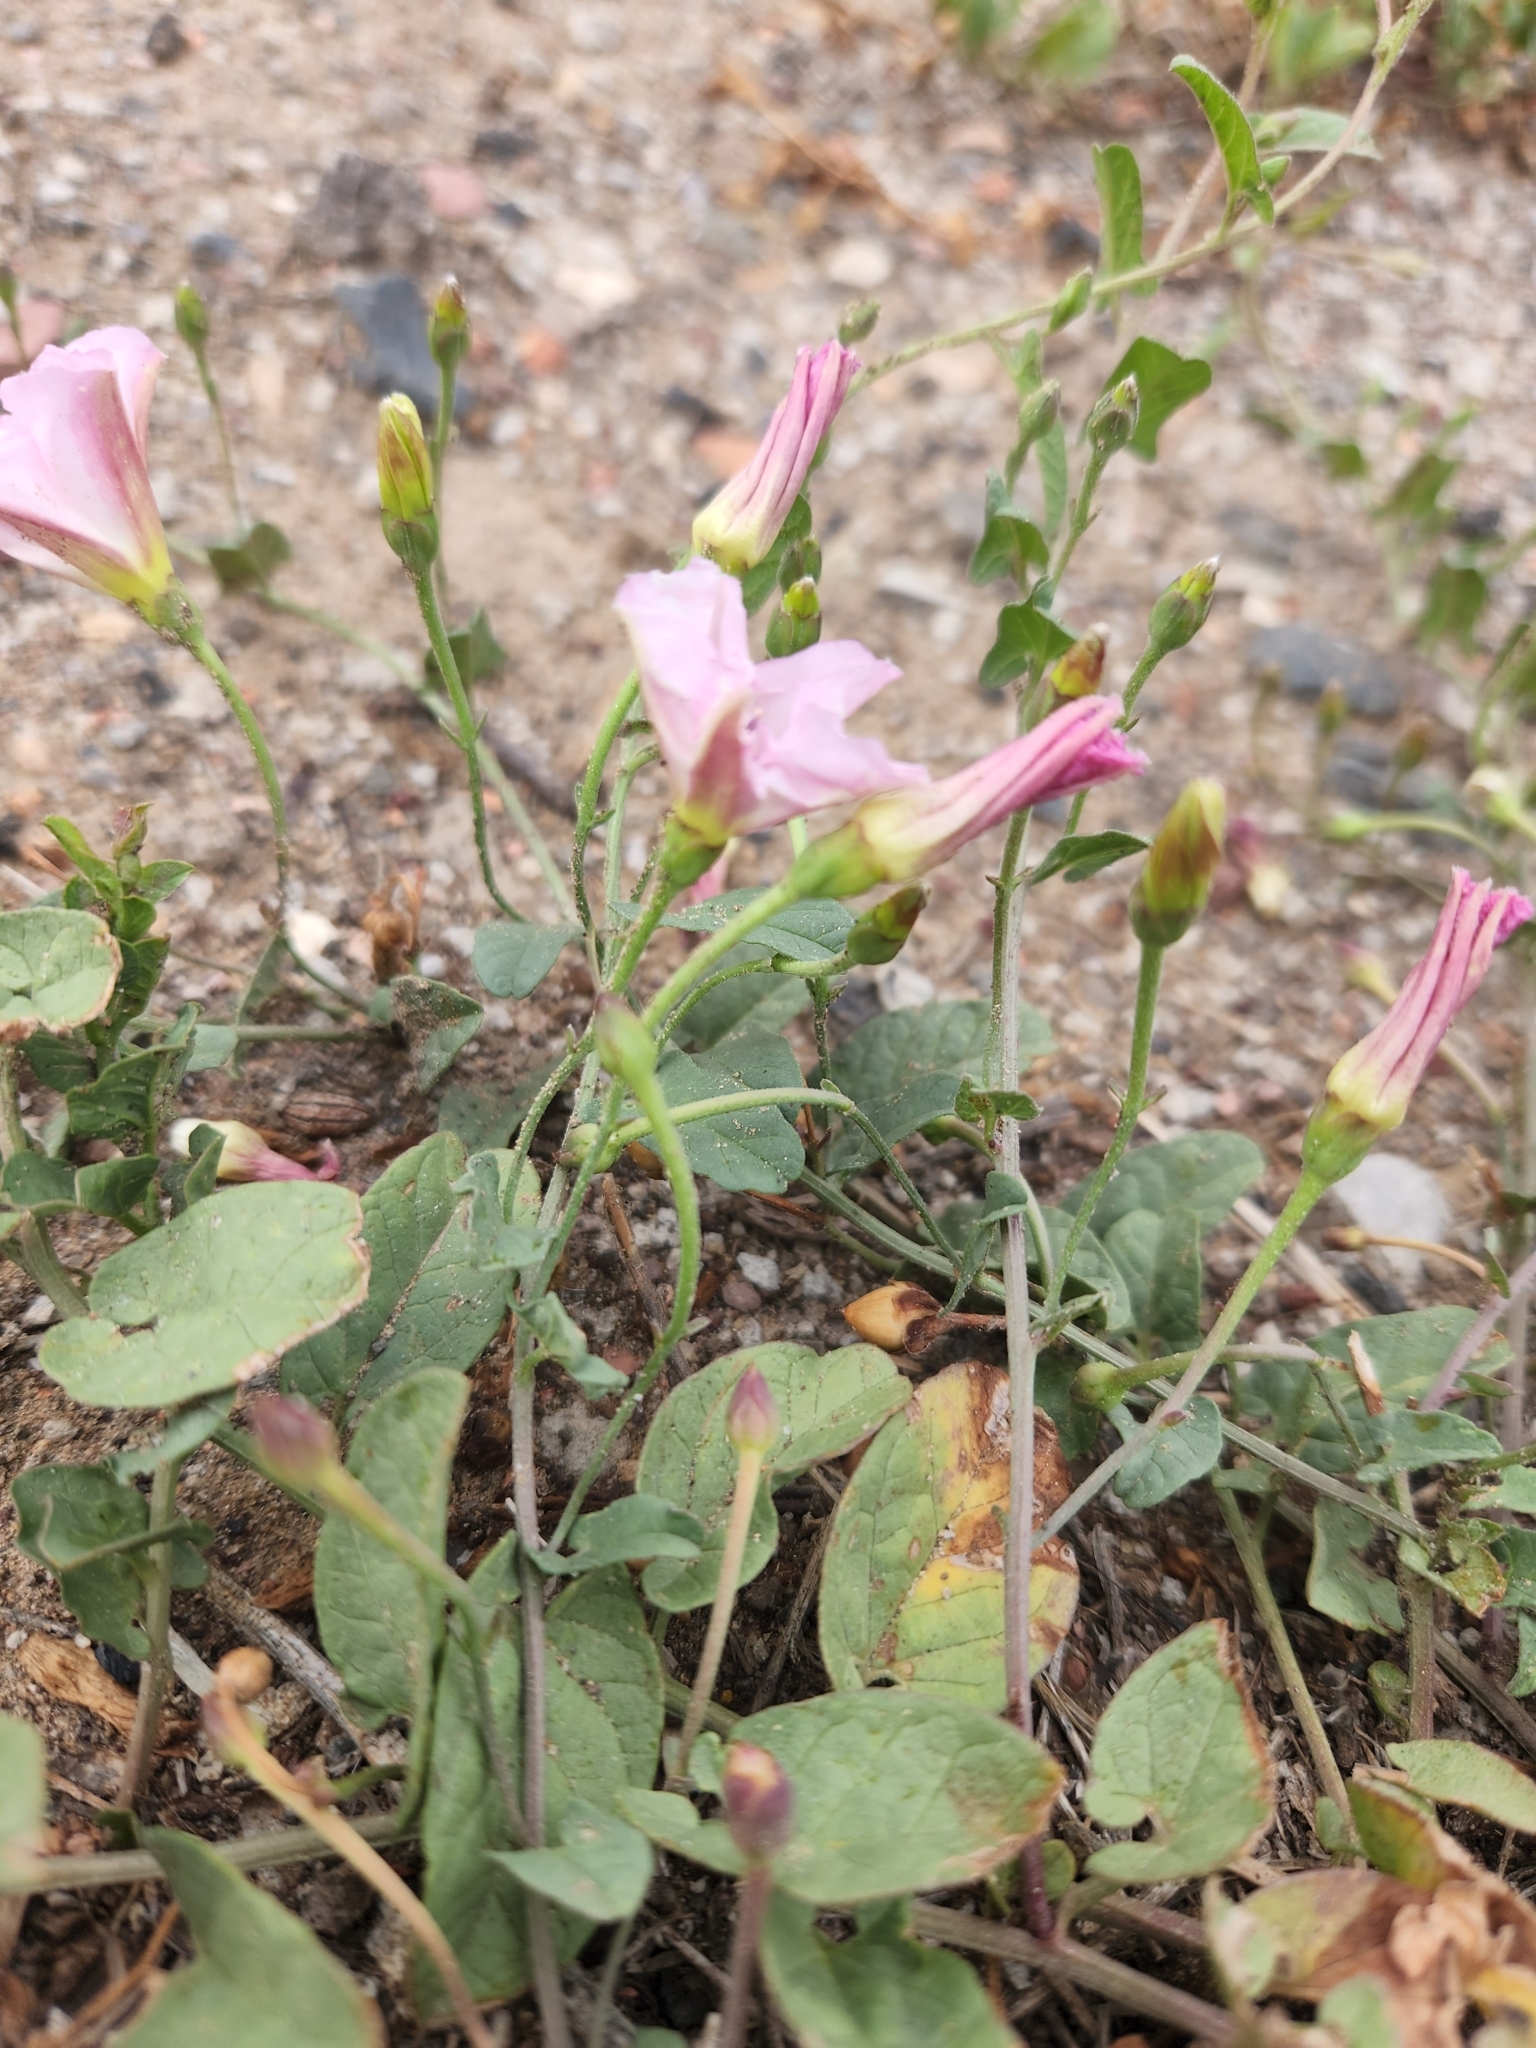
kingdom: Plantae
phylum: Tracheophyta
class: Magnoliopsida
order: Solanales
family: Convolvulaceae
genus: Convolvulus
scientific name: Convolvulus arvensis
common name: Field bindweed
